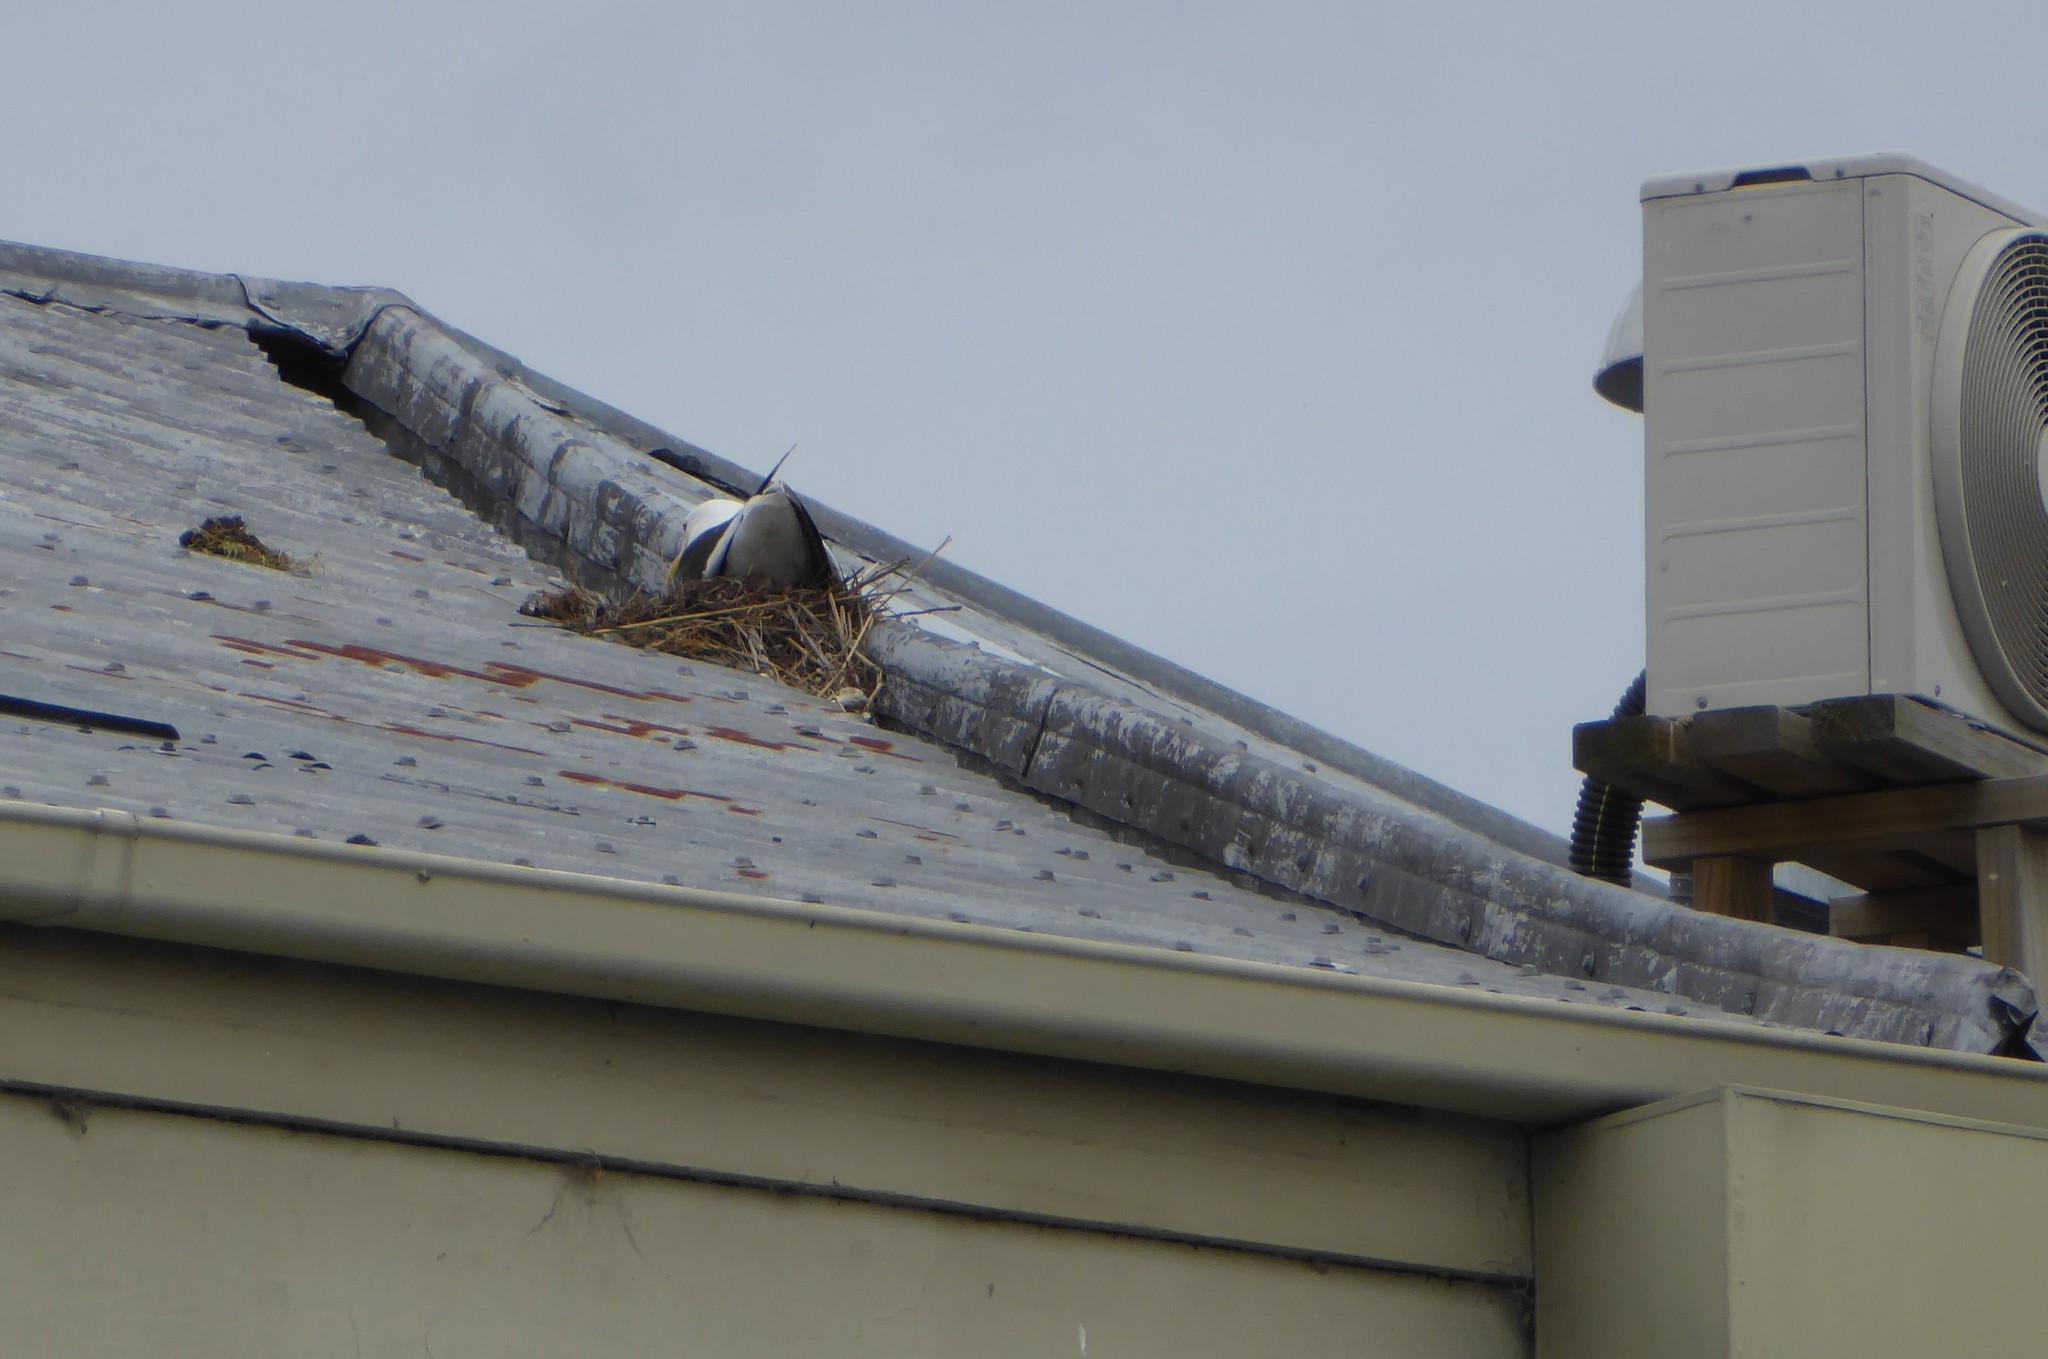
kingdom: Animalia
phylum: Chordata
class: Aves
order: Charadriiformes
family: Laridae
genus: Larus
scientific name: Larus dominicanus
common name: Kelp gull
